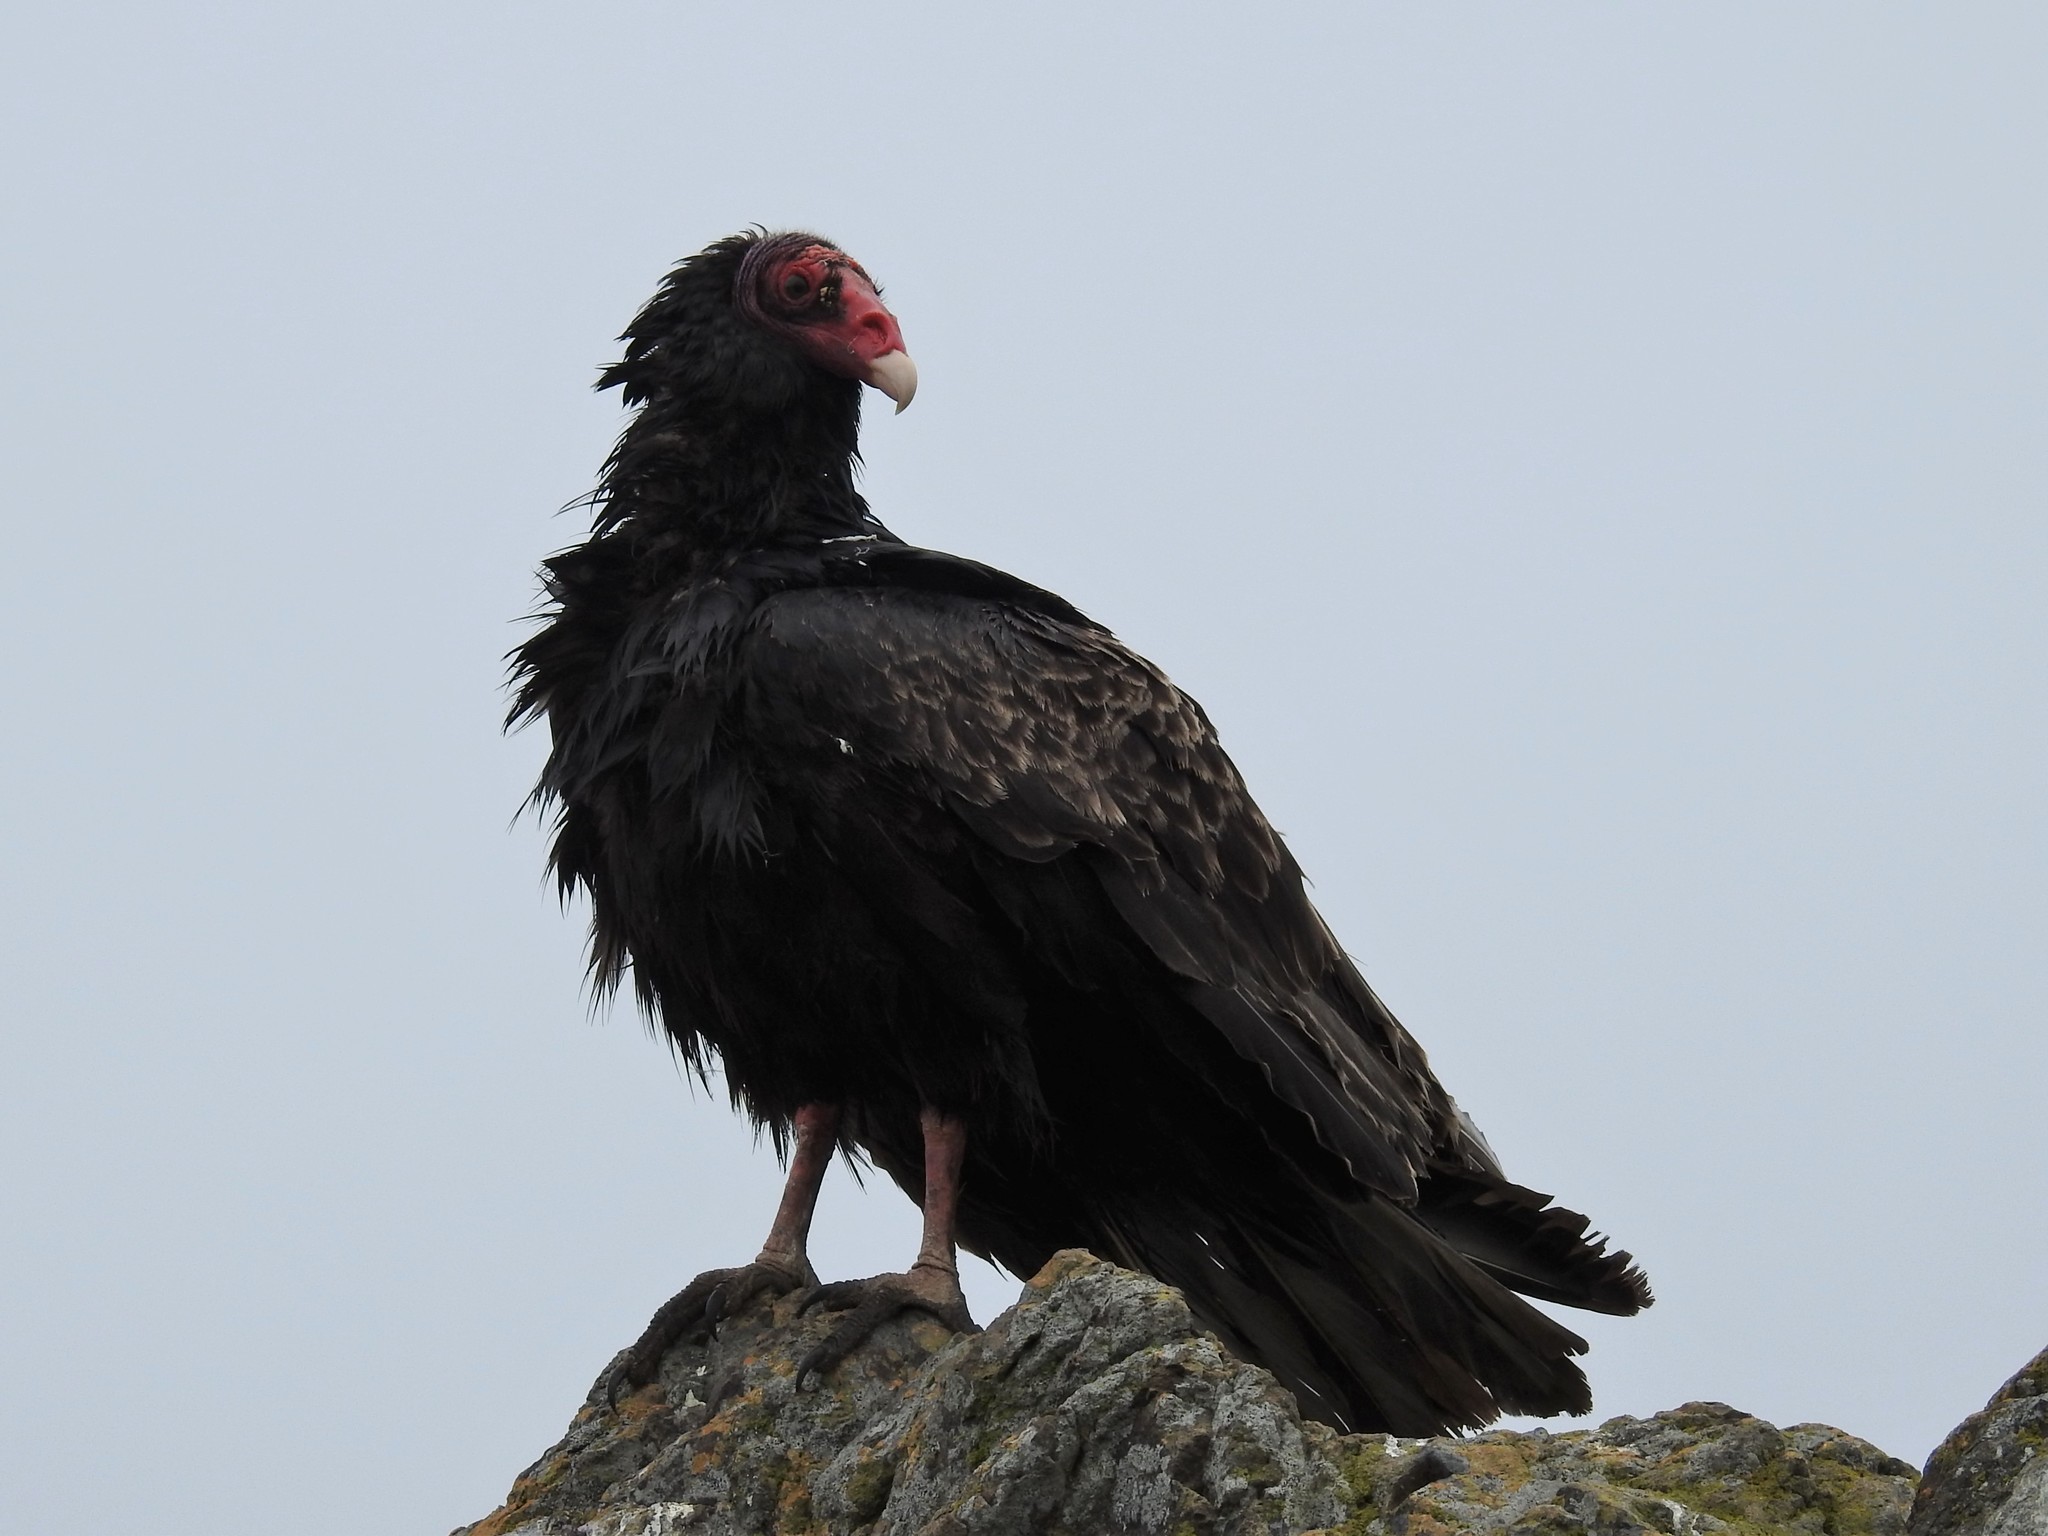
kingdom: Animalia
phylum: Chordata
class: Aves
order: Accipitriformes
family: Cathartidae
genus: Cathartes
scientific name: Cathartes aura
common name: Turkey vulture
